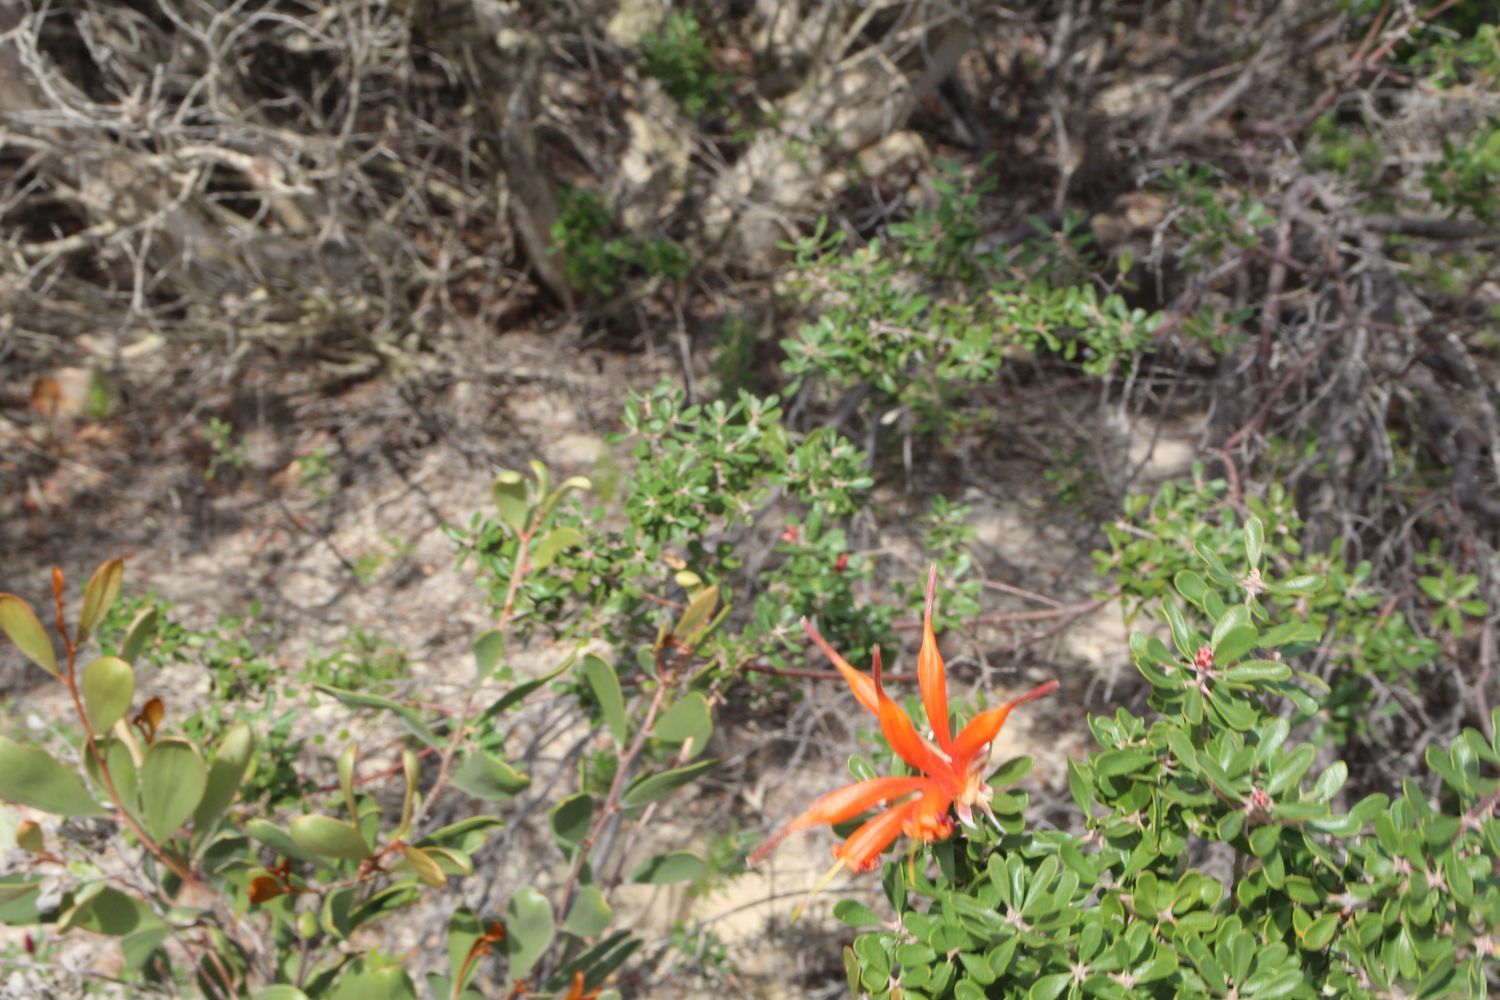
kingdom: Plantae
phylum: Tracheophyta
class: Magnoliopsida
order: Proteales
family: Proteaceae
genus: Lambertia
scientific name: Lambertia inermis
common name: Chittick
